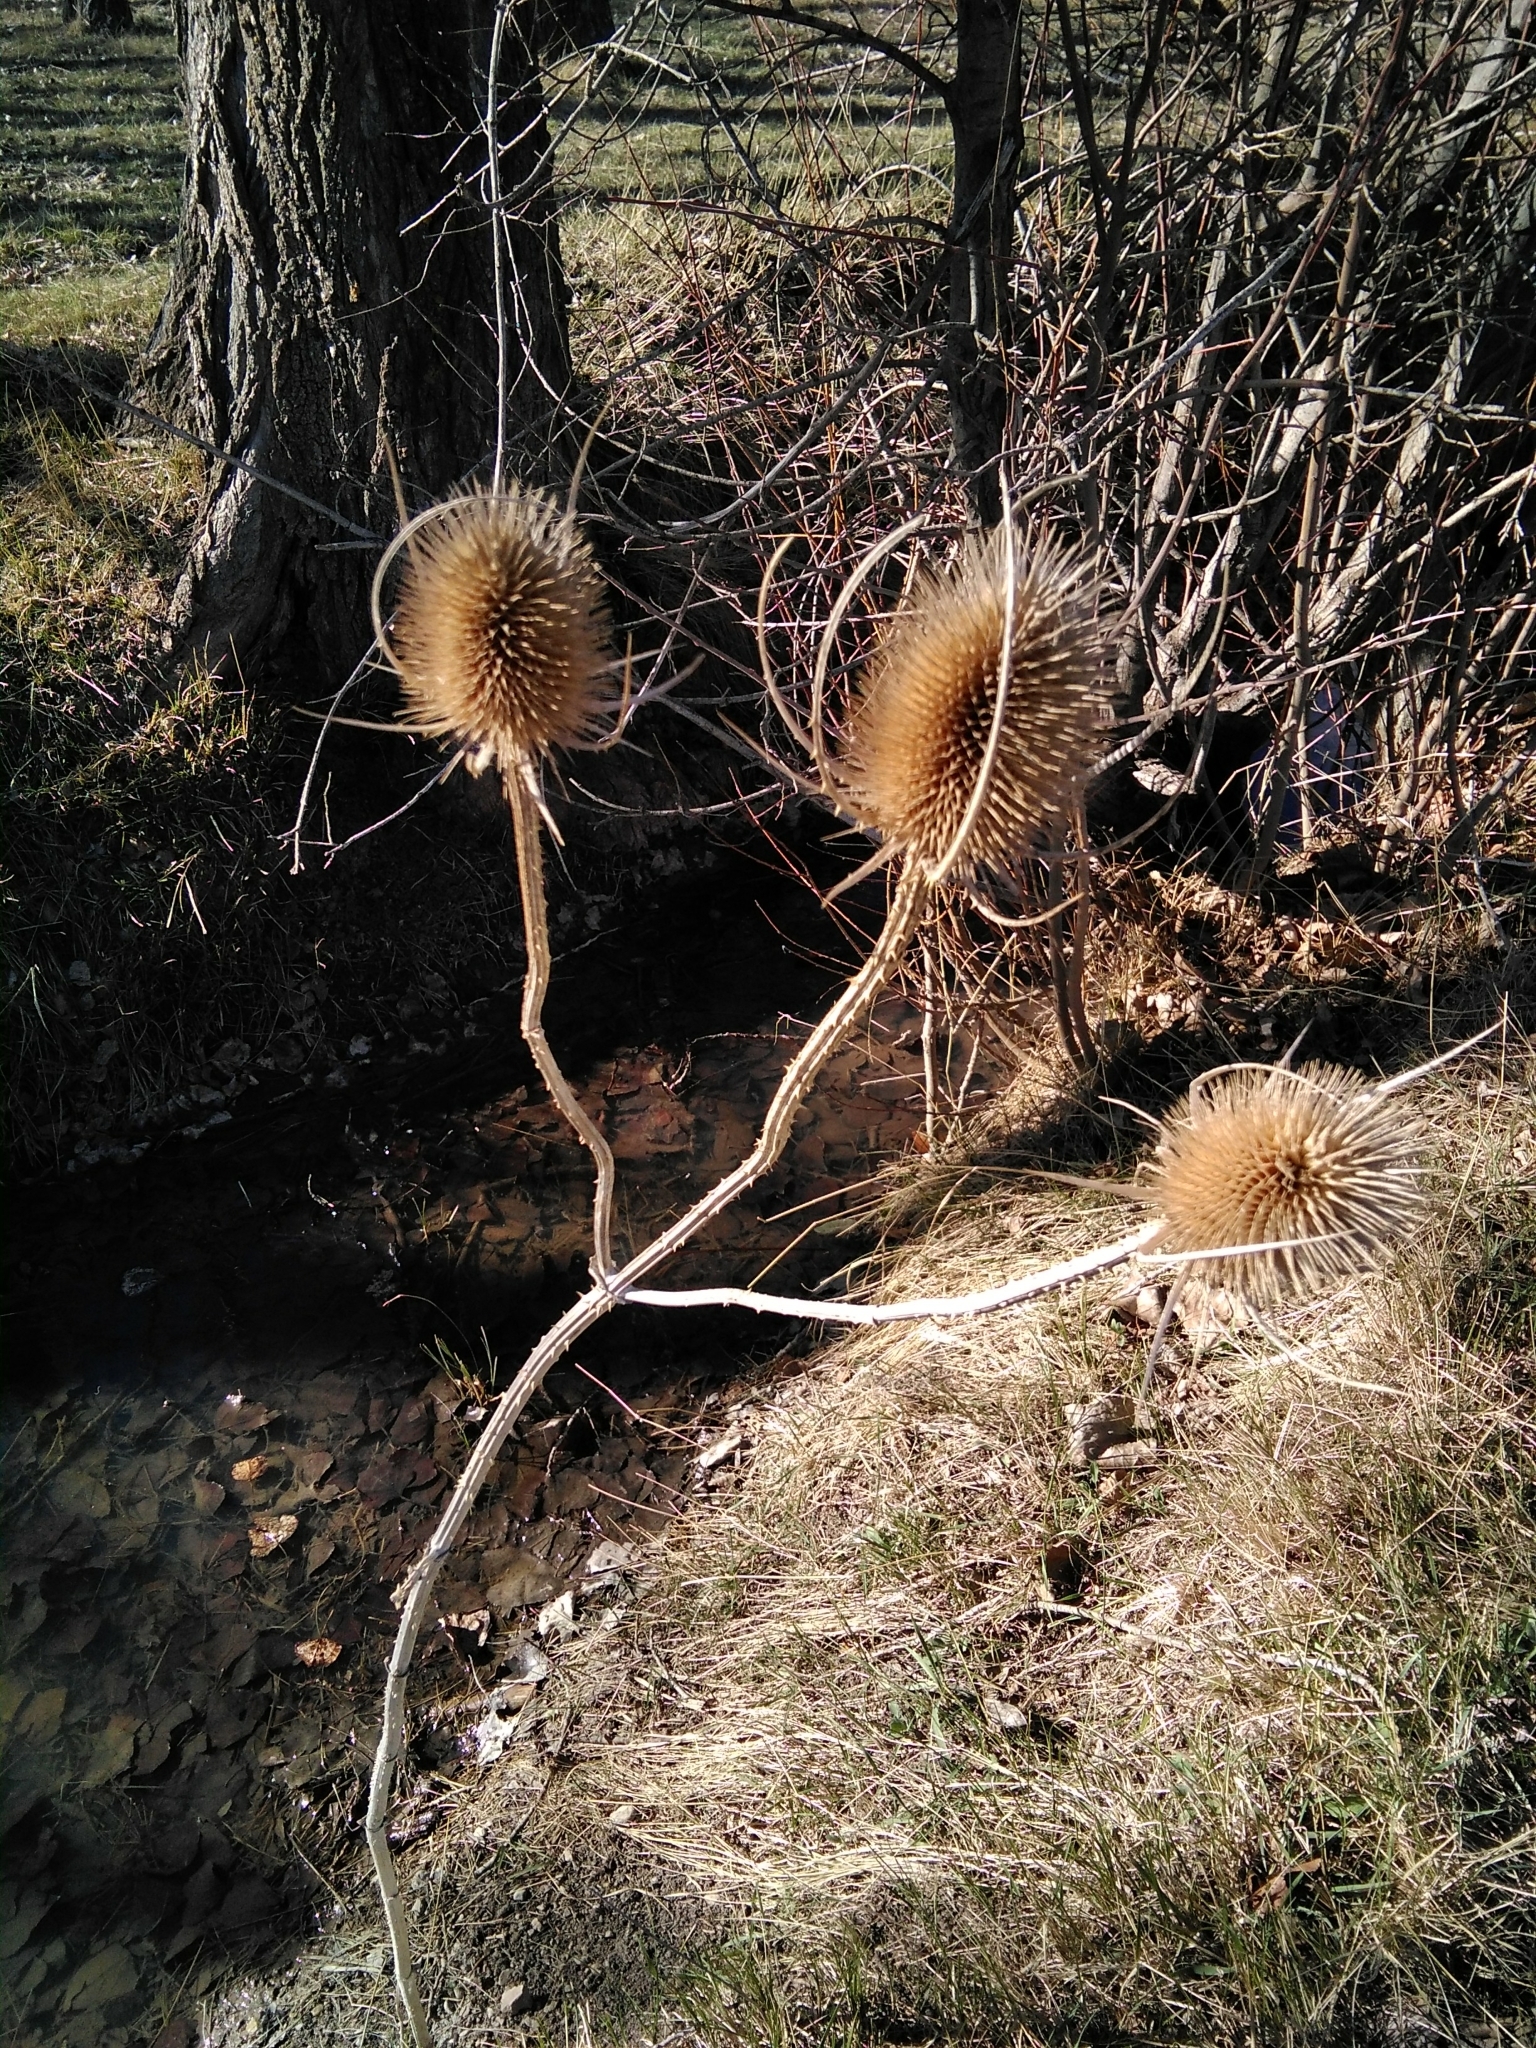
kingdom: Plantae
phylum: Tracheophyta
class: Magnoliopsida
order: Dipsacales
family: Caprifoliaceae
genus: Dipsacus
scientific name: Dipsacus fullonum
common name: Teasel
